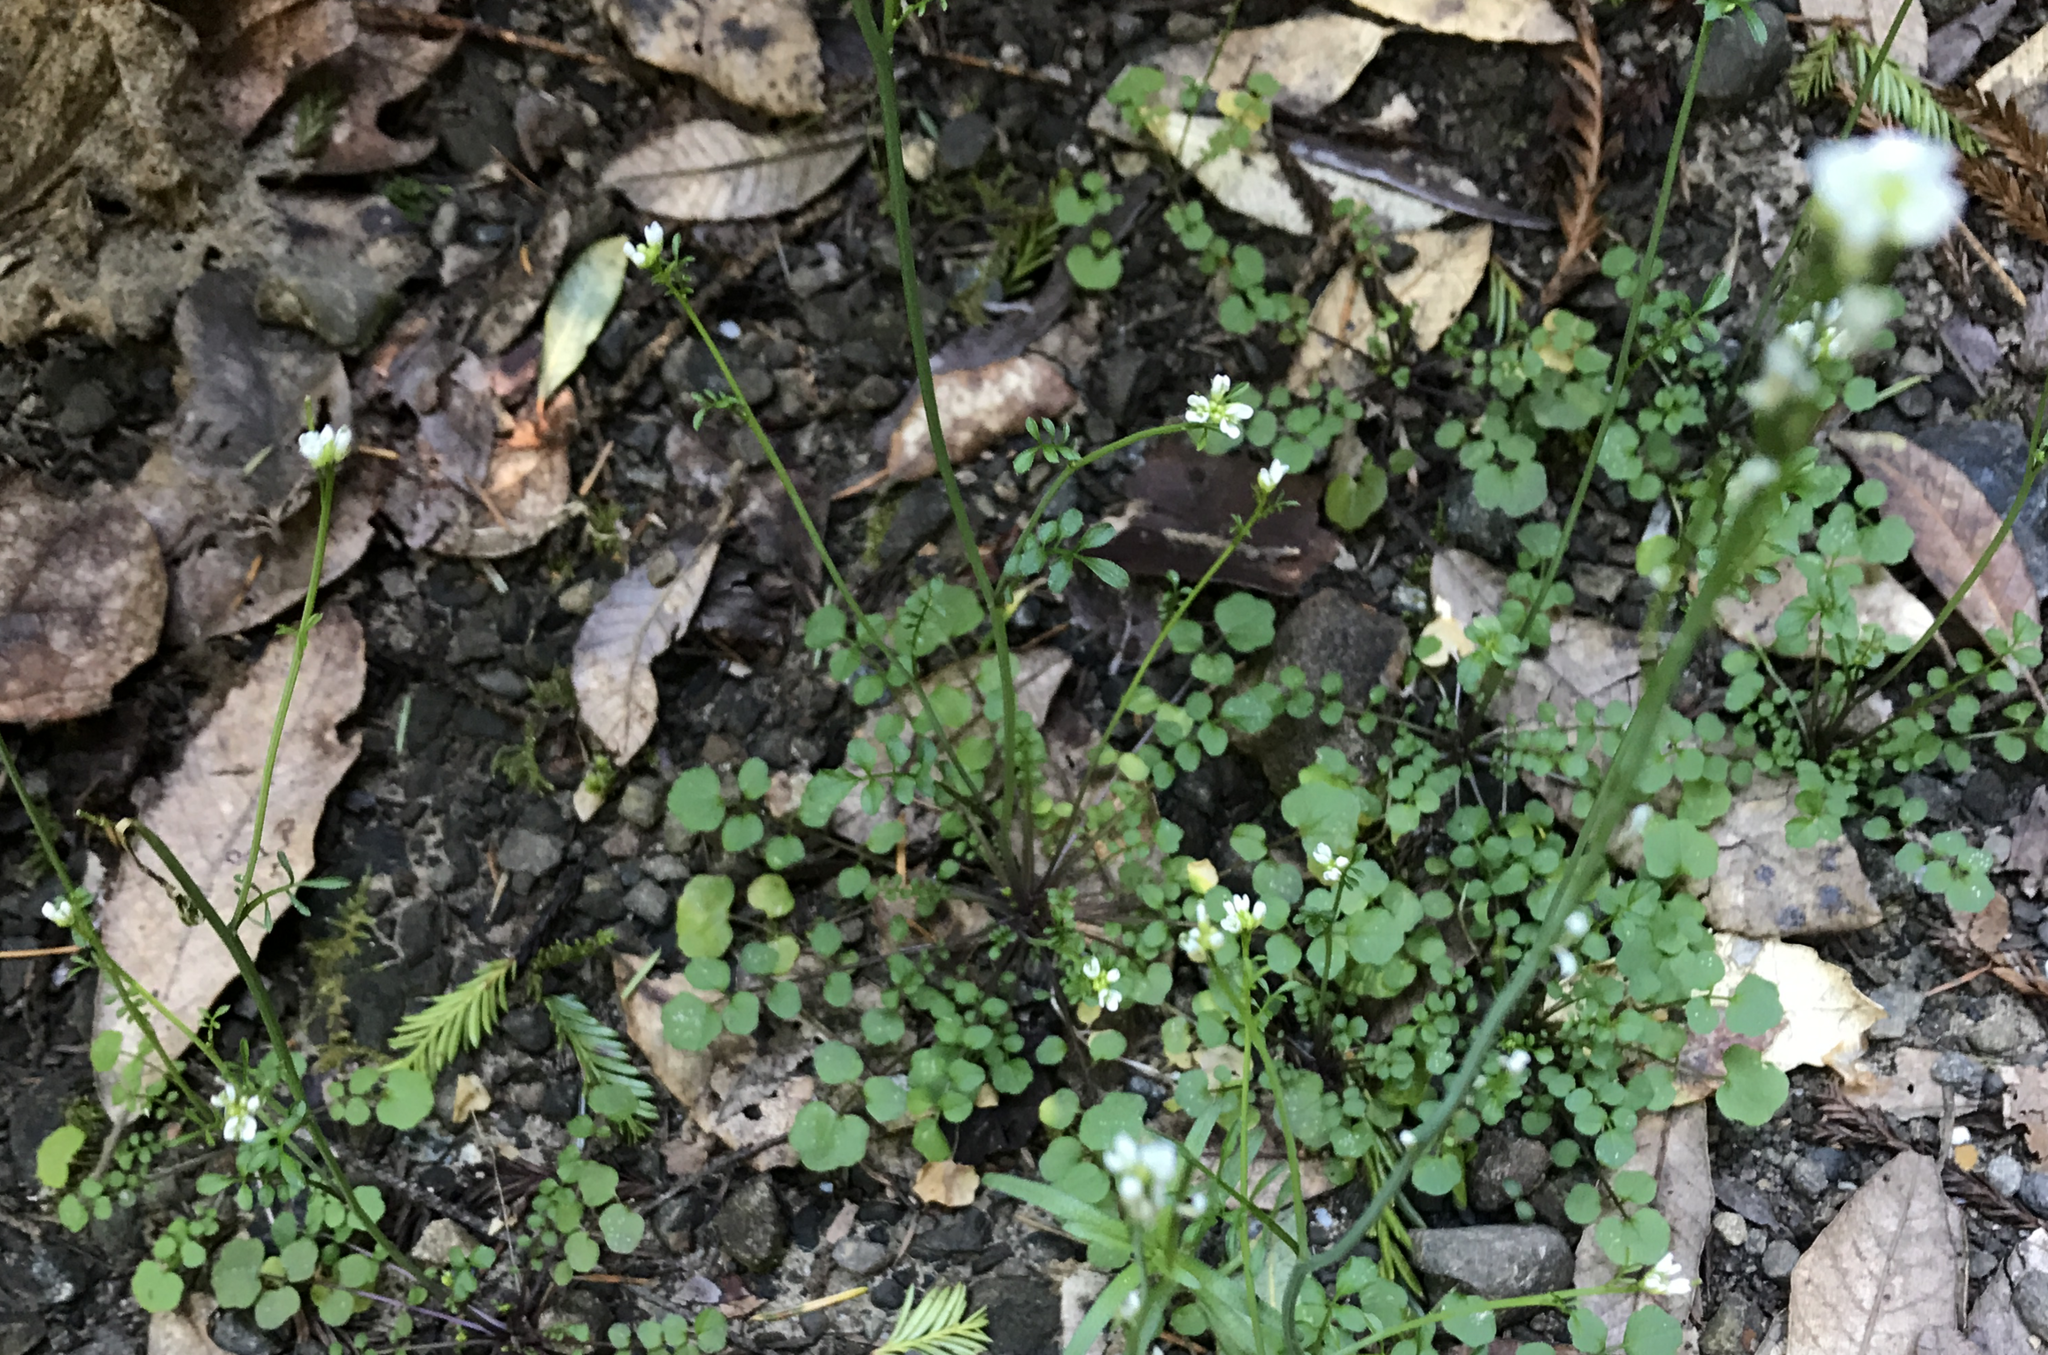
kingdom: Plantae
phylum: Tracheophyta
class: Magnoliopsida
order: Brassicales
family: Brassicaceae
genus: Cardamine
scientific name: Cardamine hirsuta
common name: Hairy bittercress
